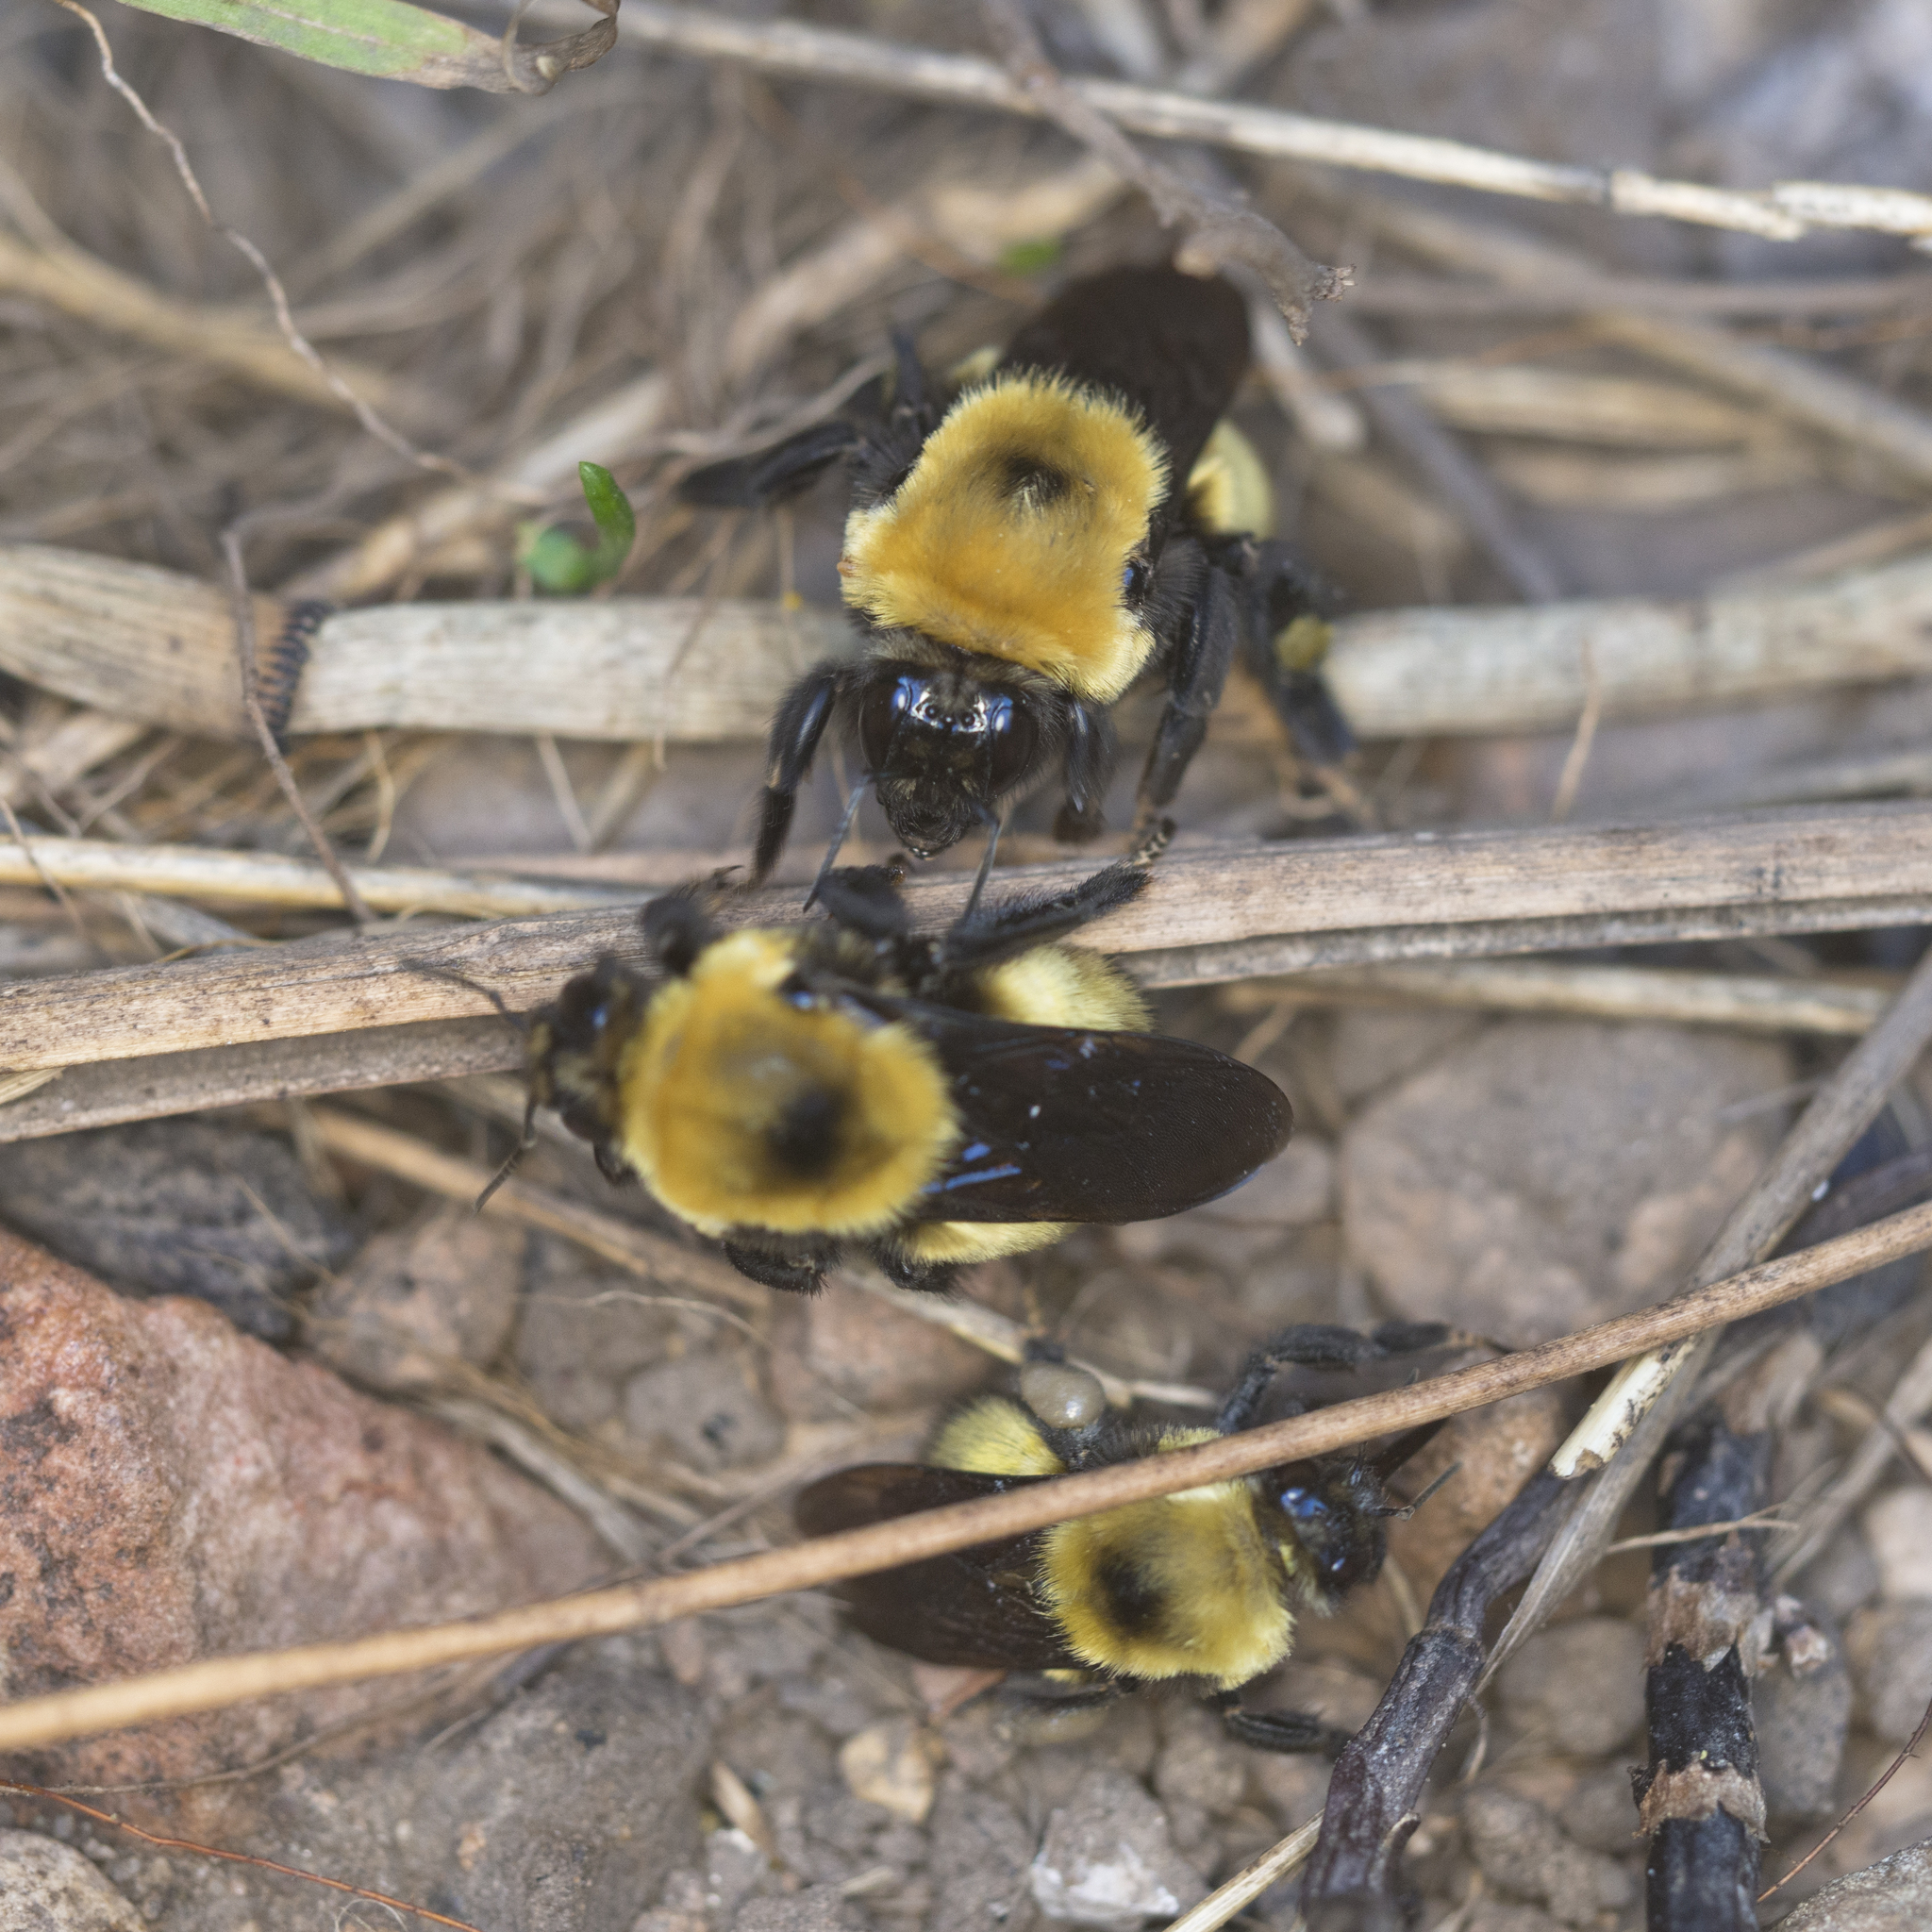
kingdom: Animalia
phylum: Arthropoda
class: Insecta
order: Hymenoptera
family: Apidae
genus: Bombus
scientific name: Bombus nevadensis
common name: Nevada bumble bee
